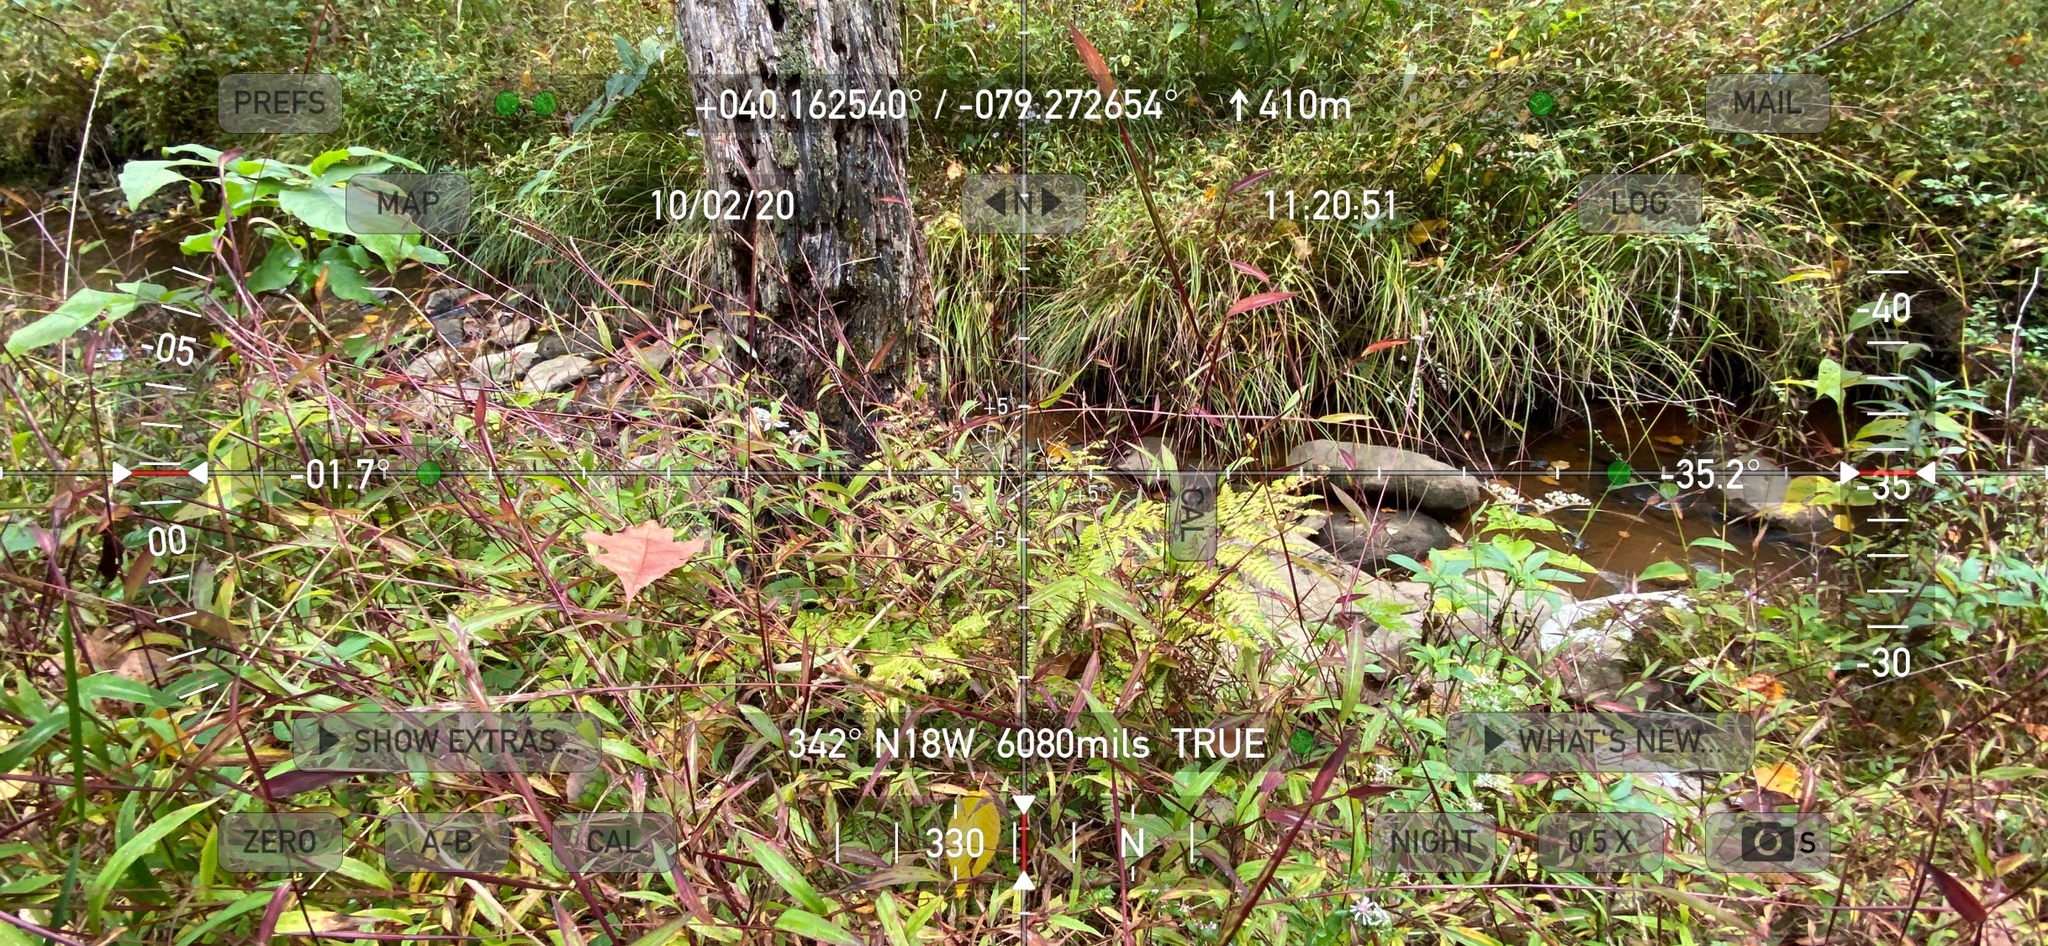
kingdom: Plantae
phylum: Tracheophyta
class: Liliopsida
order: Poales
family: Poaceae
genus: Microstegium
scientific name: Microstegium vimineum
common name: Japanese stiltgrass
